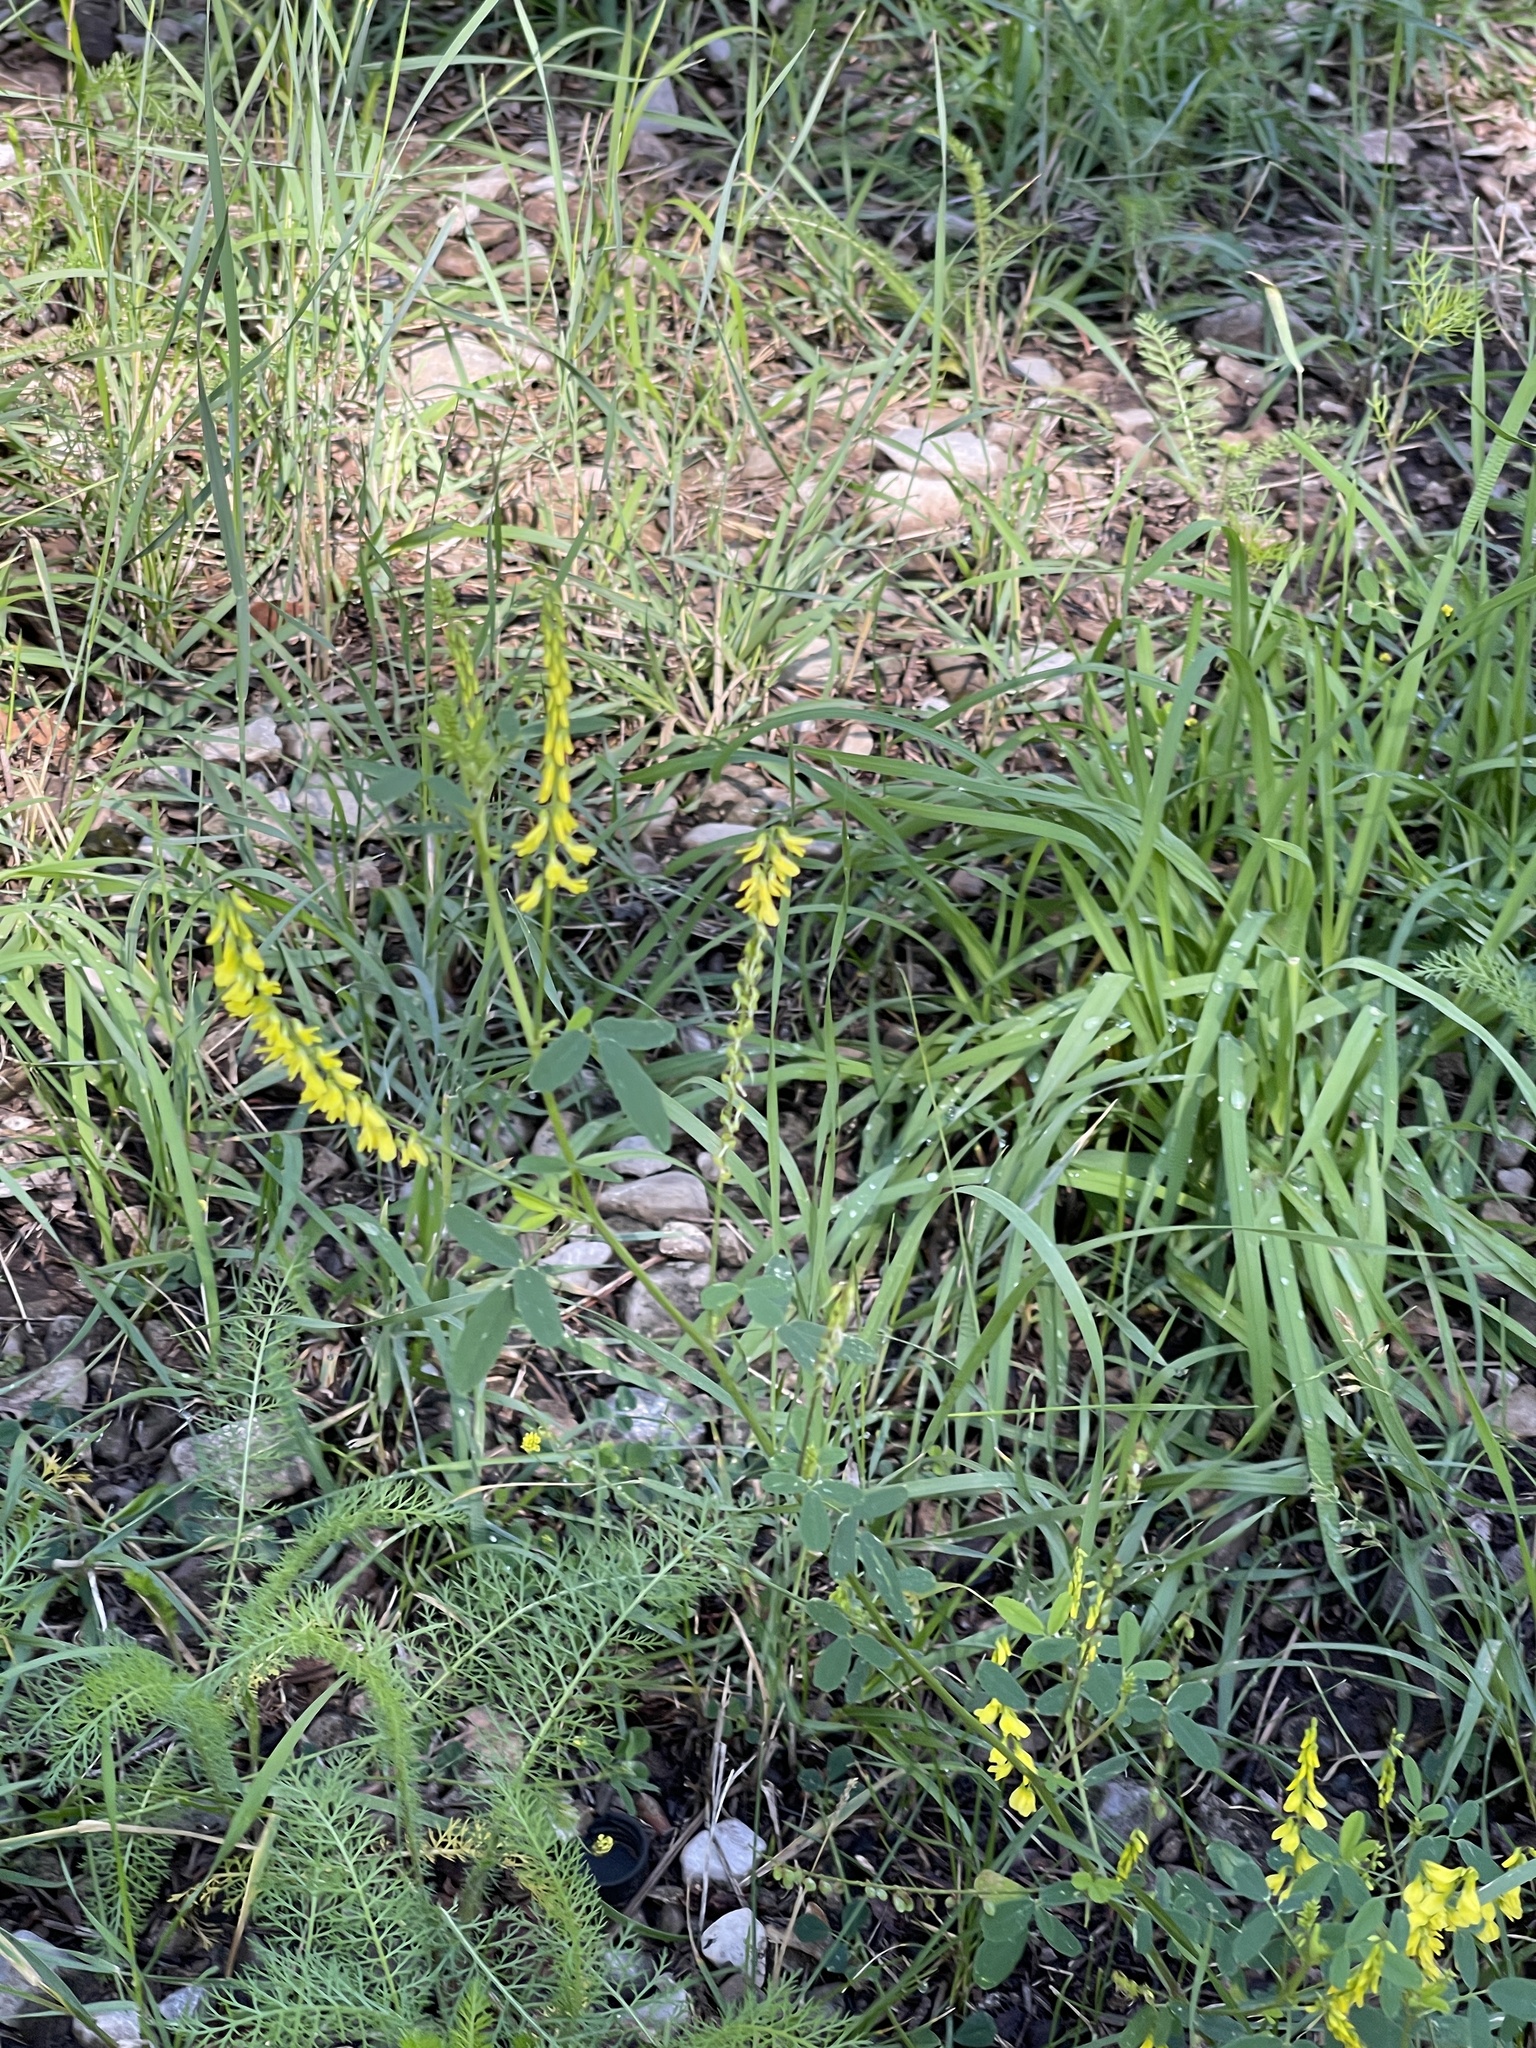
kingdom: Plantae
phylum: Tracheophyta
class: Magnoliopsida
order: Fabales
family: Fabaceae
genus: Melilotus
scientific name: Melilotus officinalis
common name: Sweetclover
